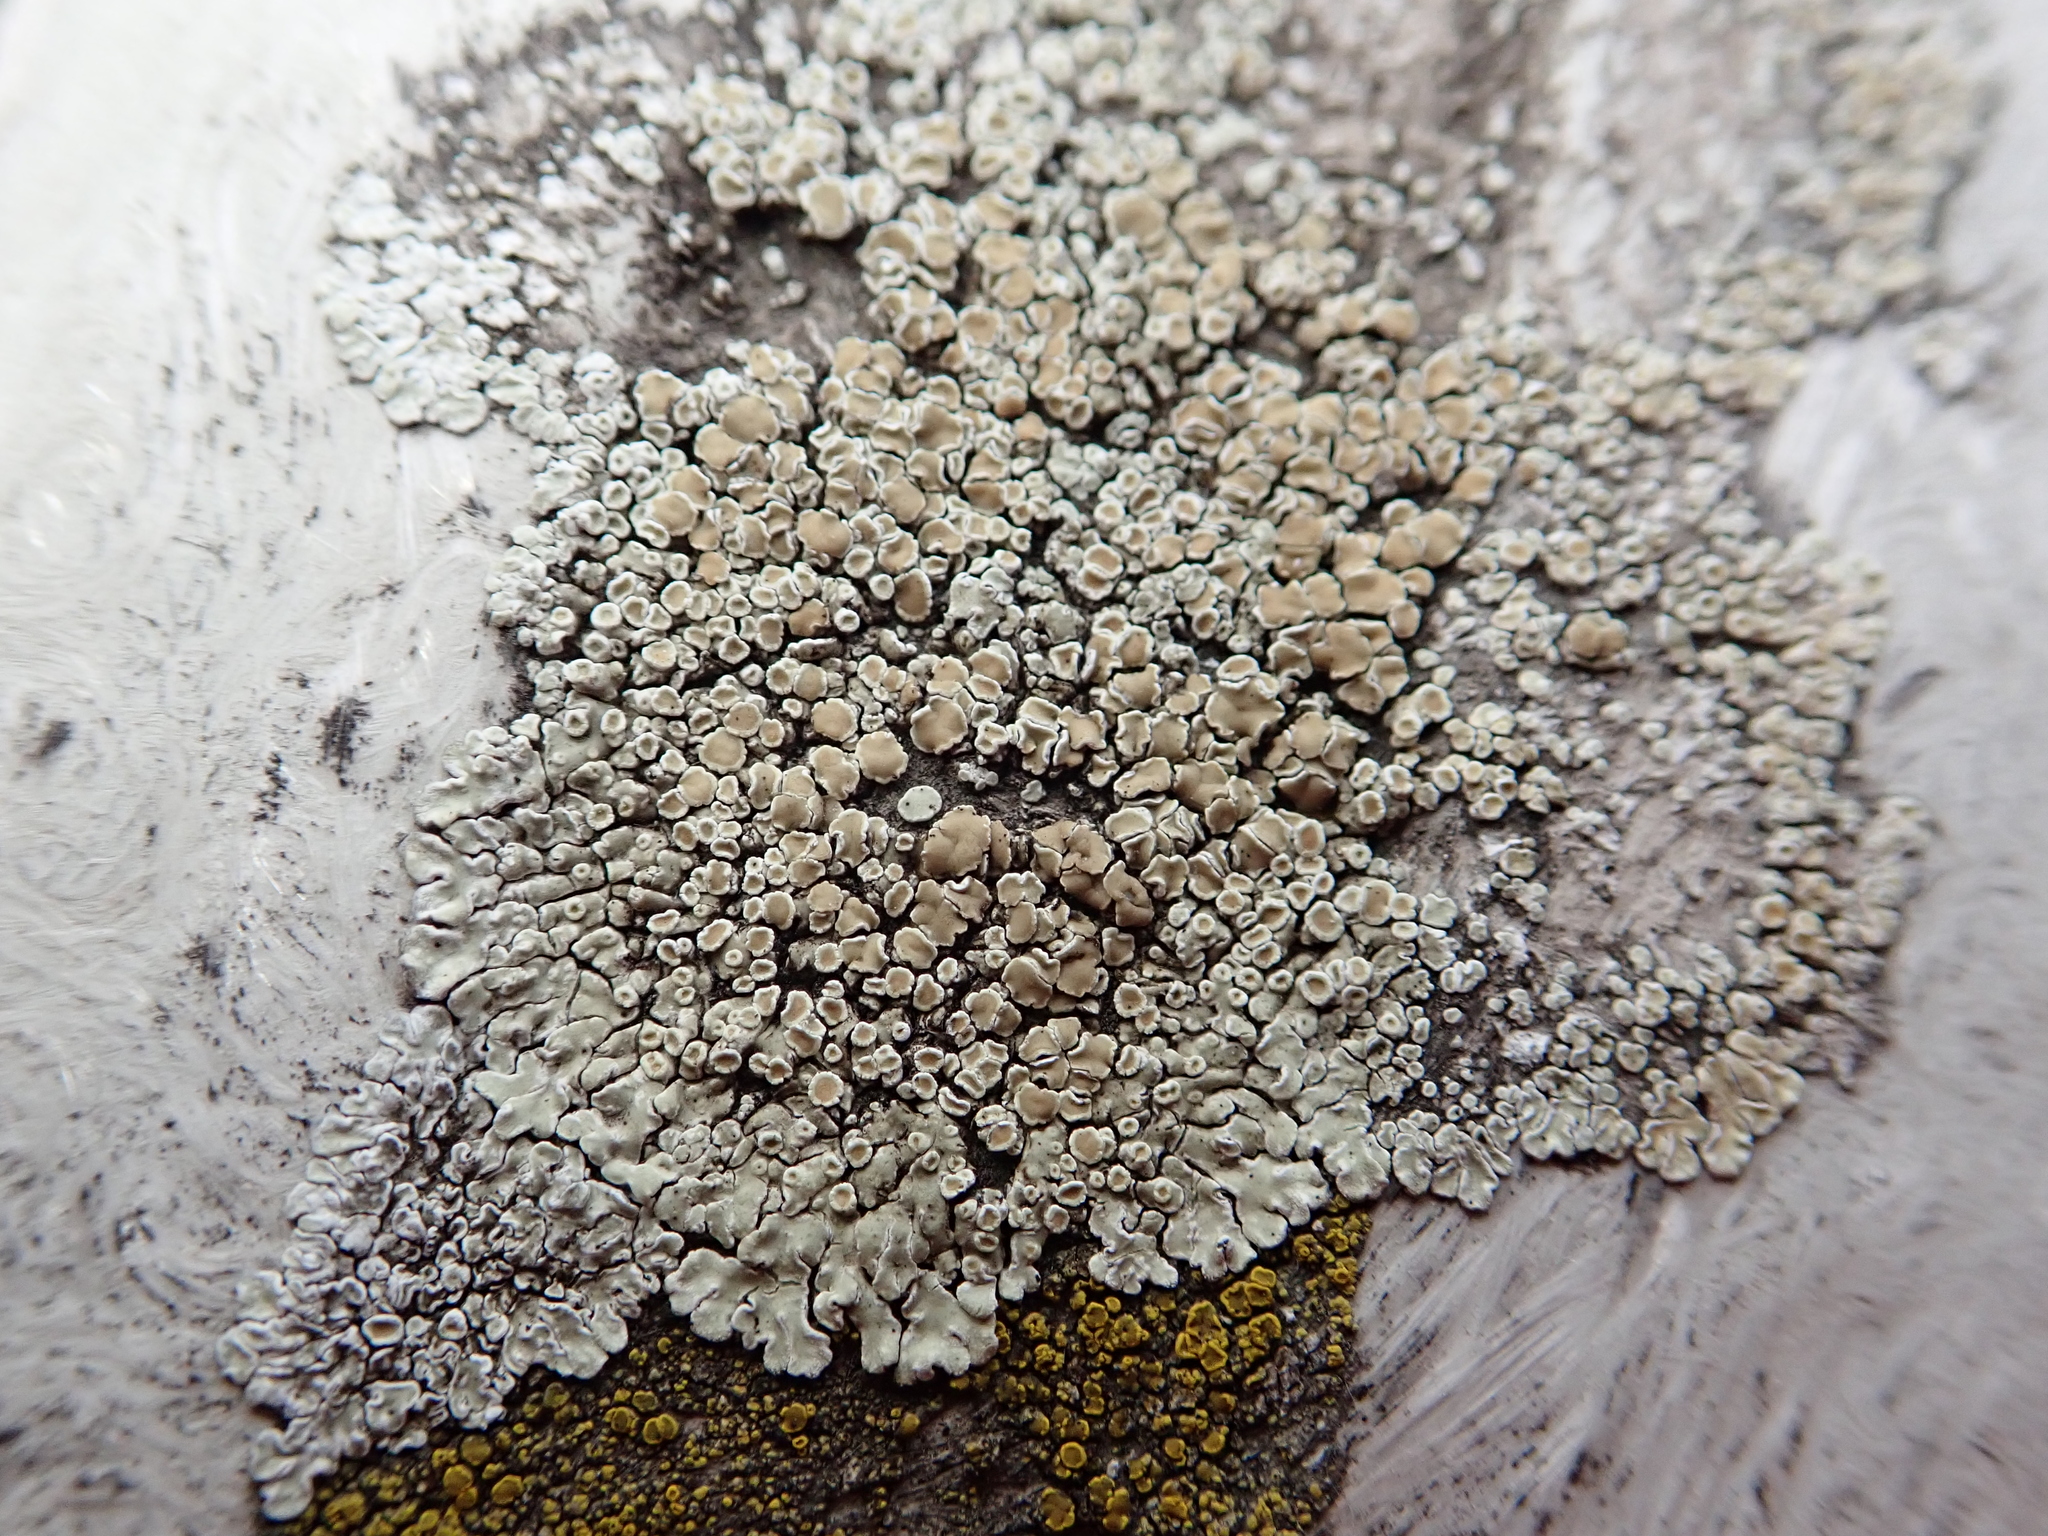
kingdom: Fungi
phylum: Ascomycota
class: Lecanoromycetes
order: Lecanorales
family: Lecanoraceae
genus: Protoparmeliopsis
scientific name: Protoparmeliopsis muralis
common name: Stonewall rim lichen
